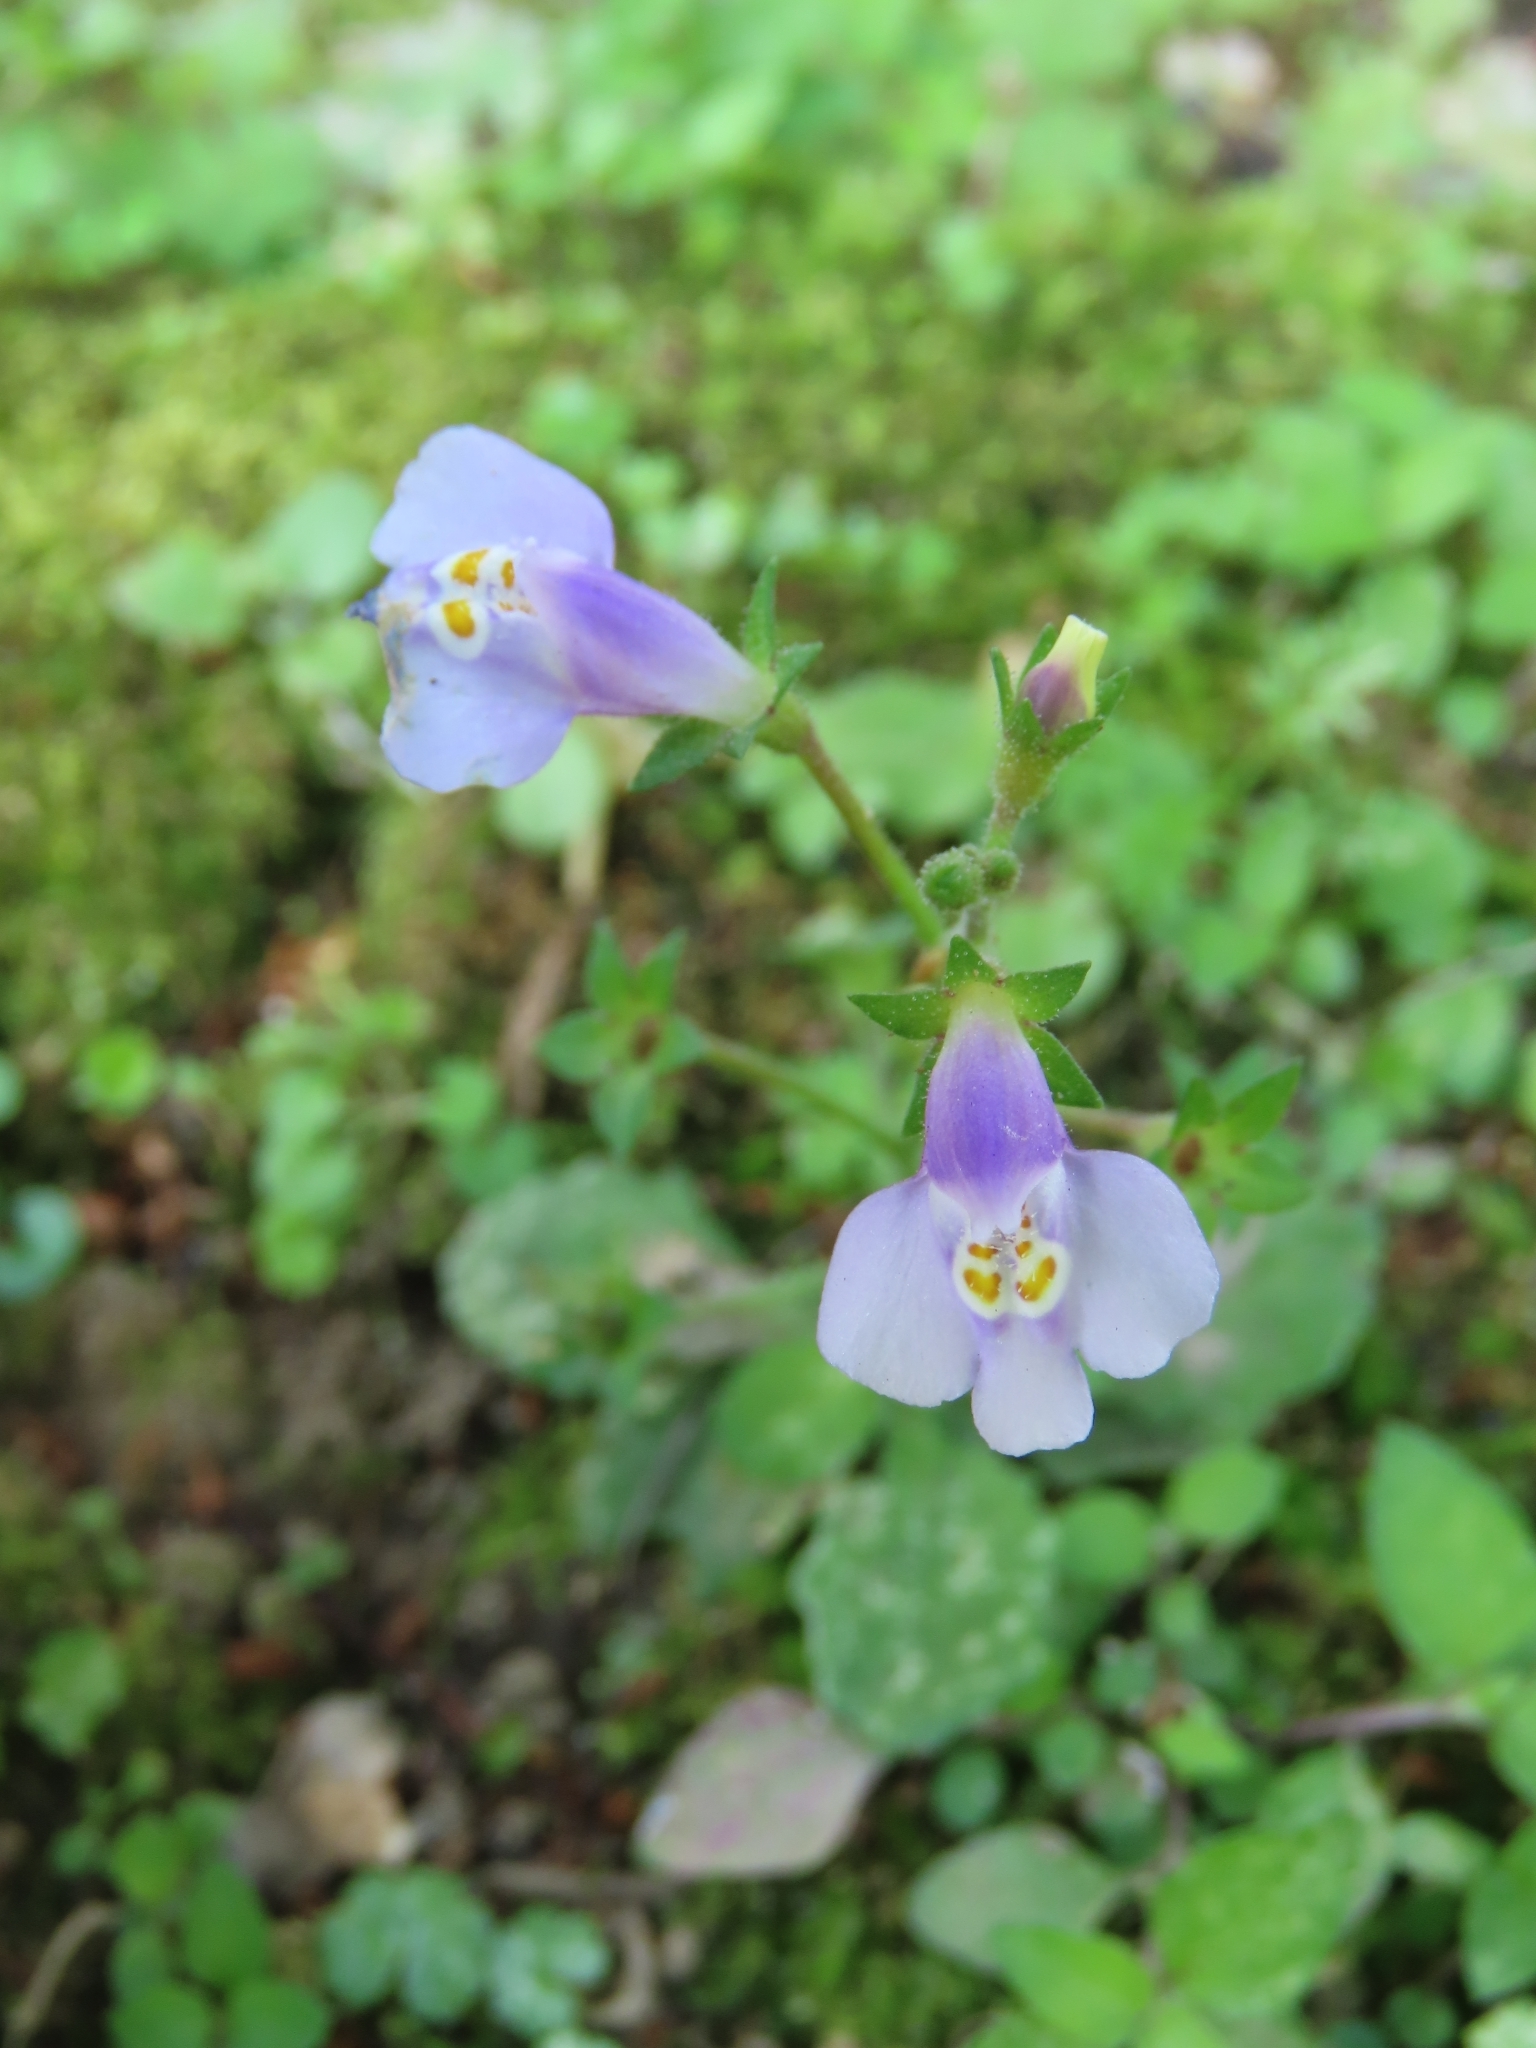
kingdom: Plantae
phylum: Tracheophyta
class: Magnoliopsida
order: Lamiales
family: Mazaceae
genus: Mazus
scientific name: Mazus fauriei
